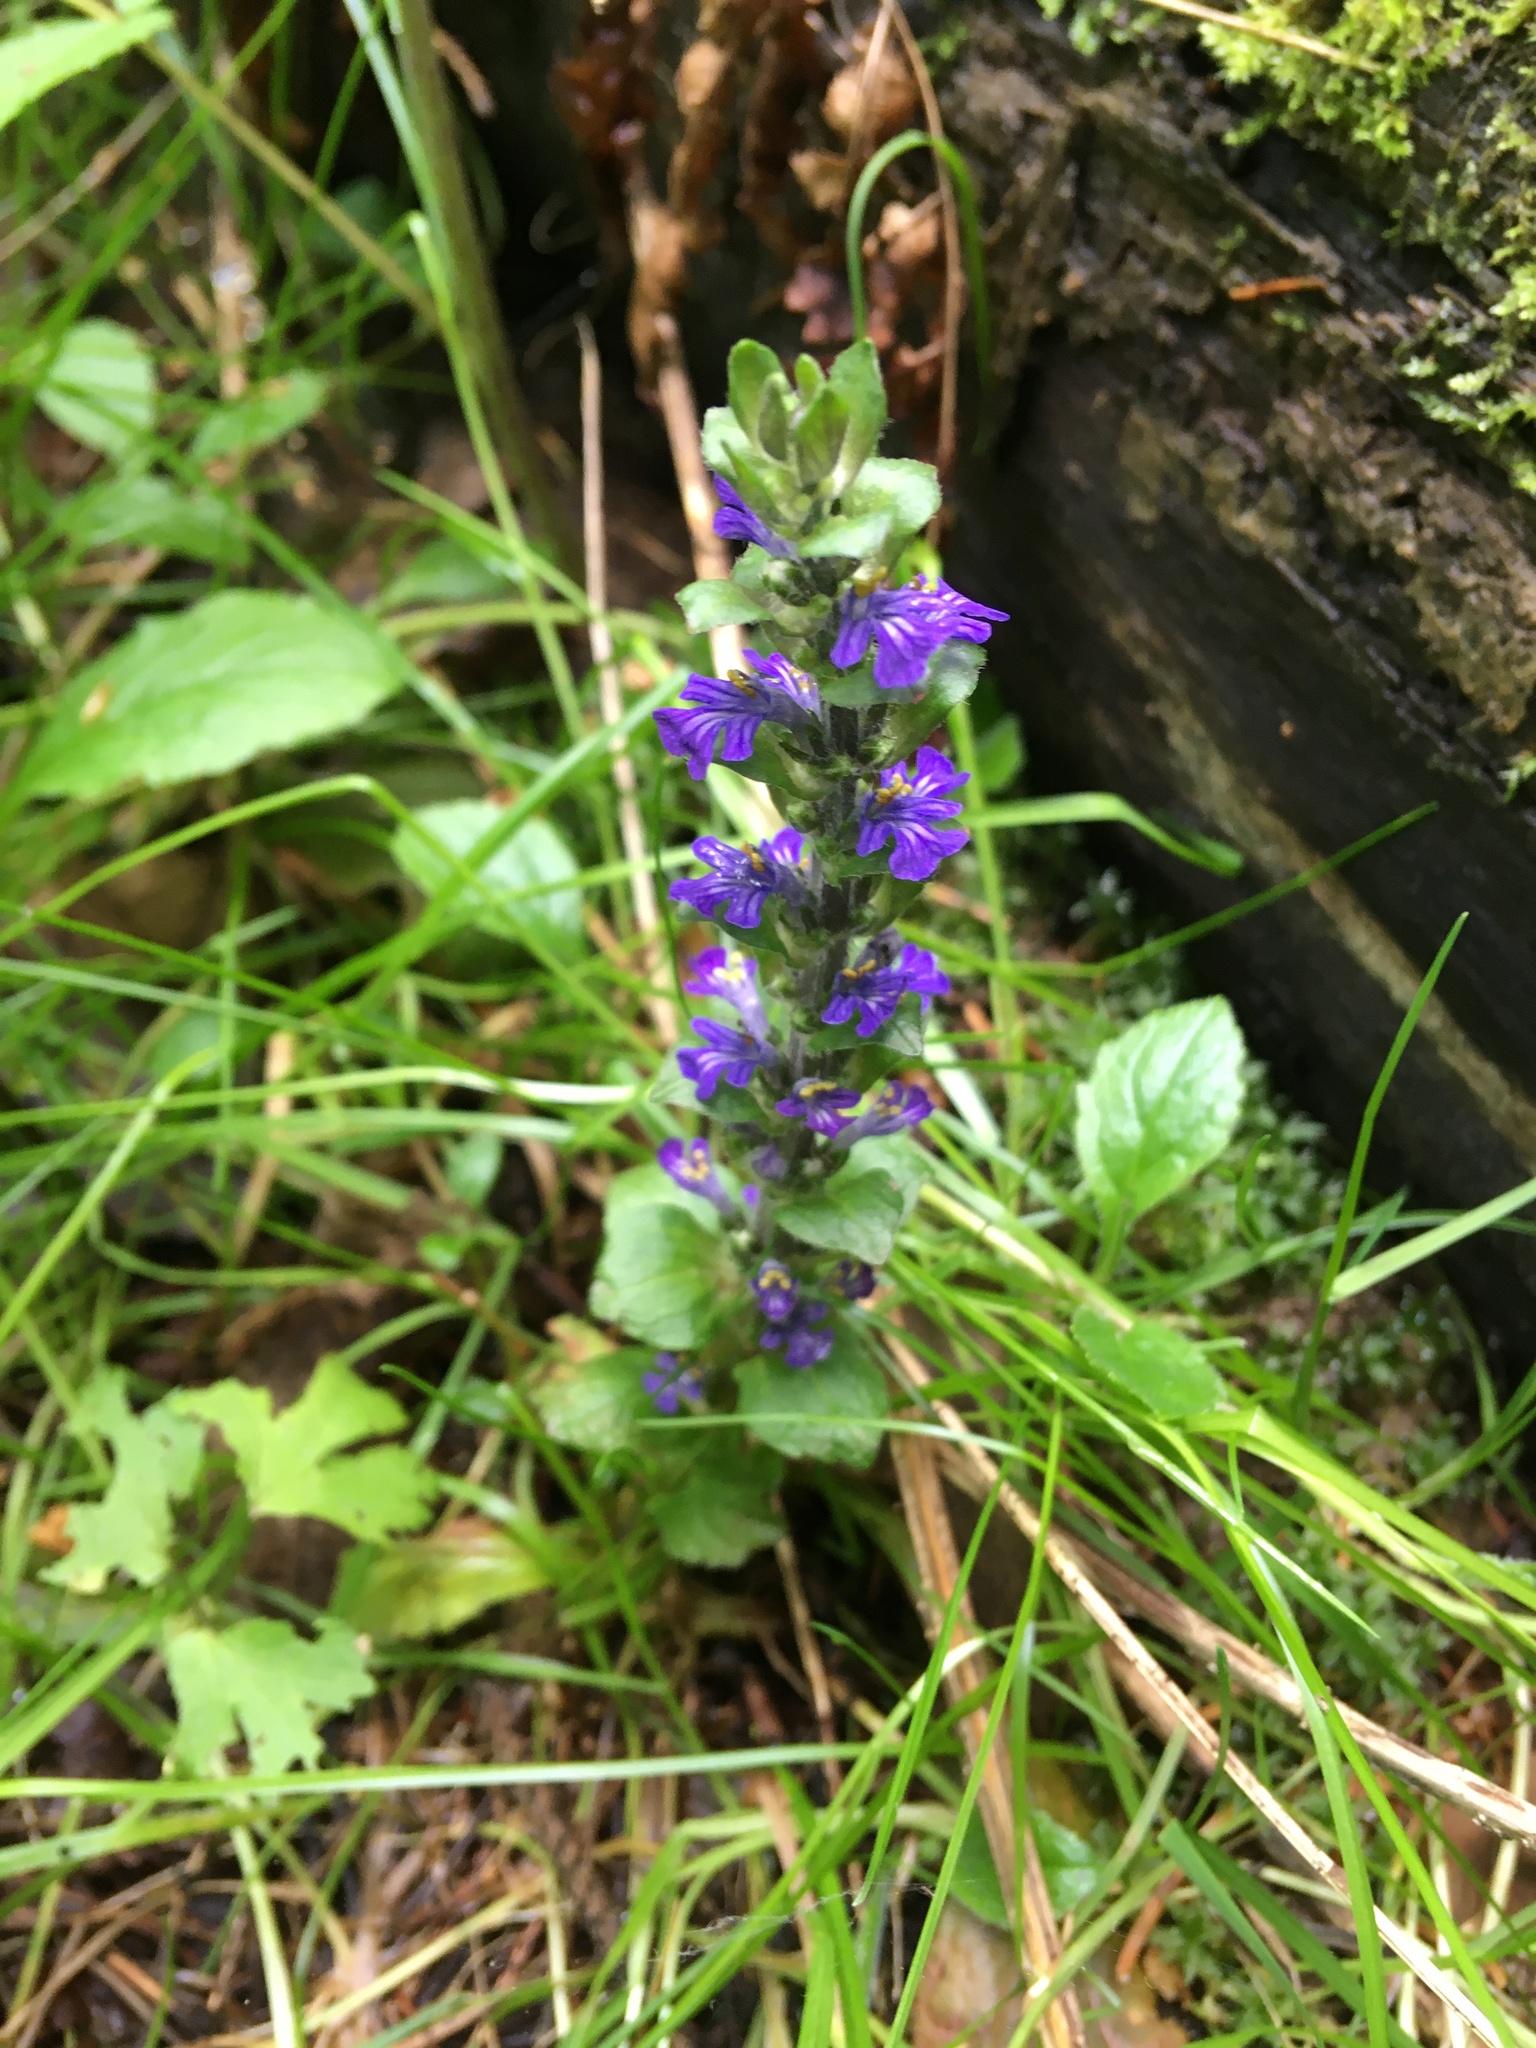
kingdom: Plantae
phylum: Tracheophyta
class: Magnoliopsida
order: Lamiales
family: Lamiaceae
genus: Ajuga
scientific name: Ajuga reptans
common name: Bugle
